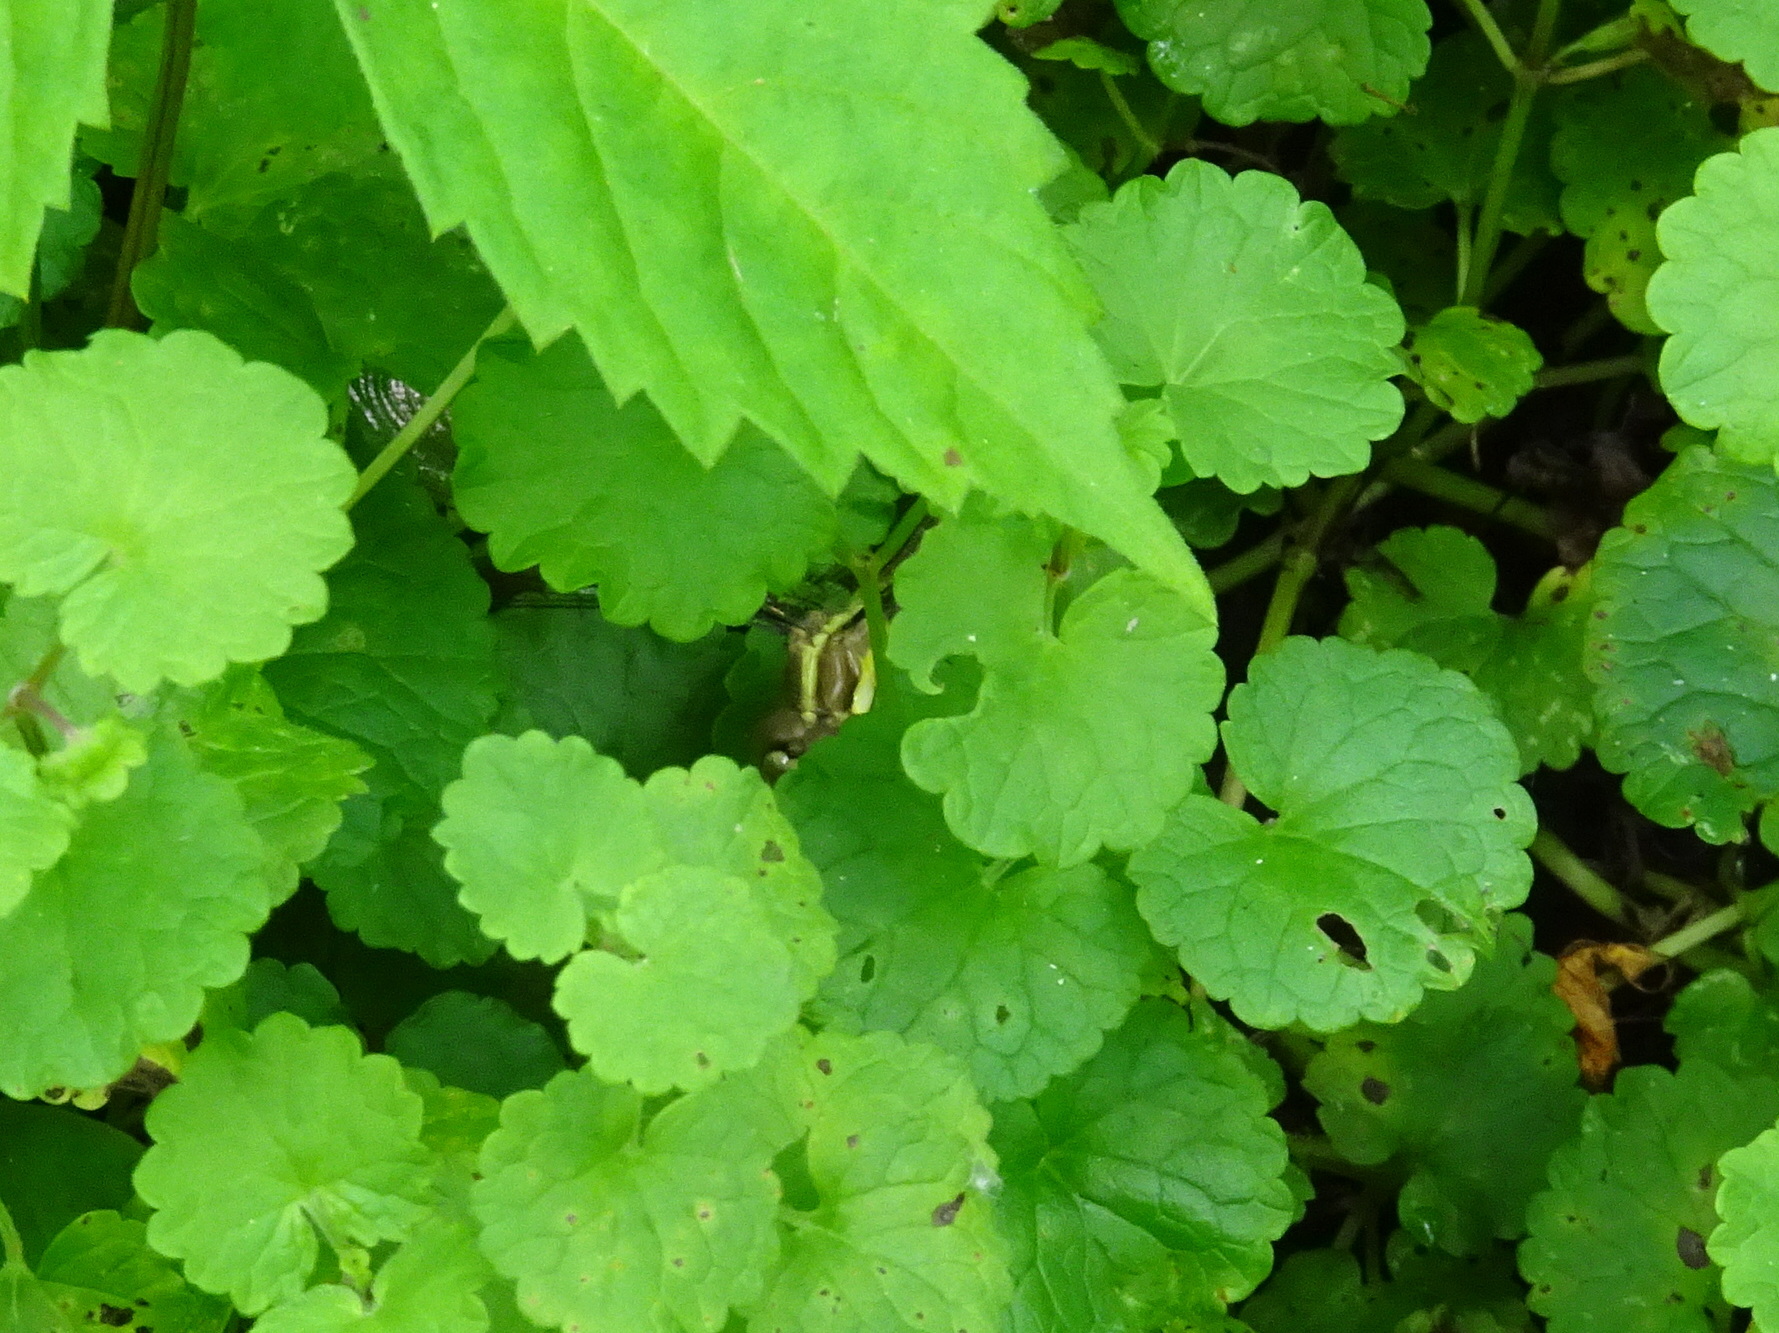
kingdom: Animalia
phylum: Arthropoda
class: Insecta
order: Odonata
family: Libellulidae
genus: Libellula
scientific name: Libellula cyanea
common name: Spangled skimmer
